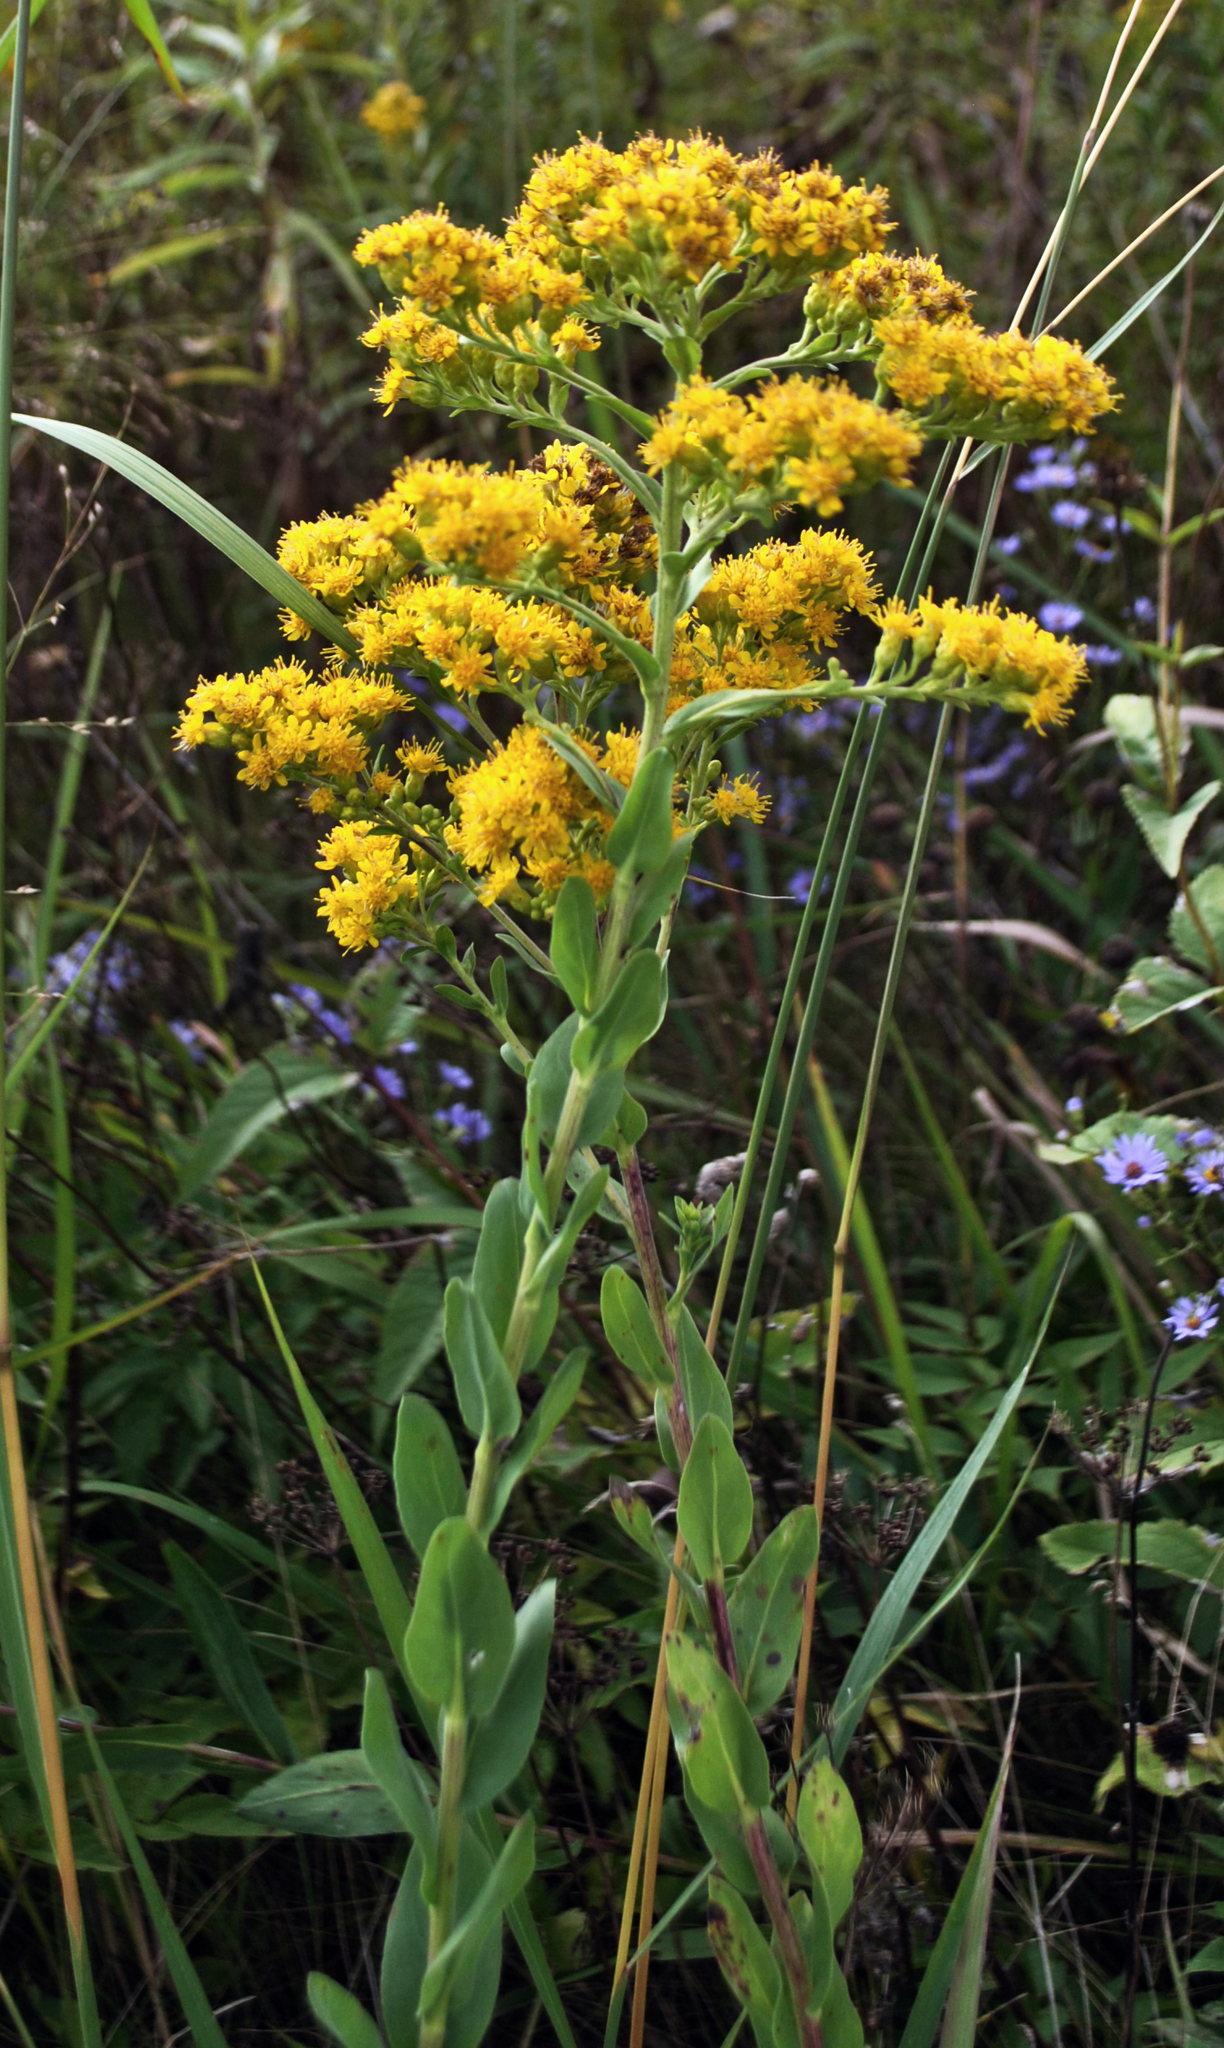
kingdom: Plantae
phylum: Tracheophyta
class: Magnoliopsida
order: Asterales
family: Asteraceae
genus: Solidago
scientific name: Solidago rigida
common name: Rigid goldenrod
